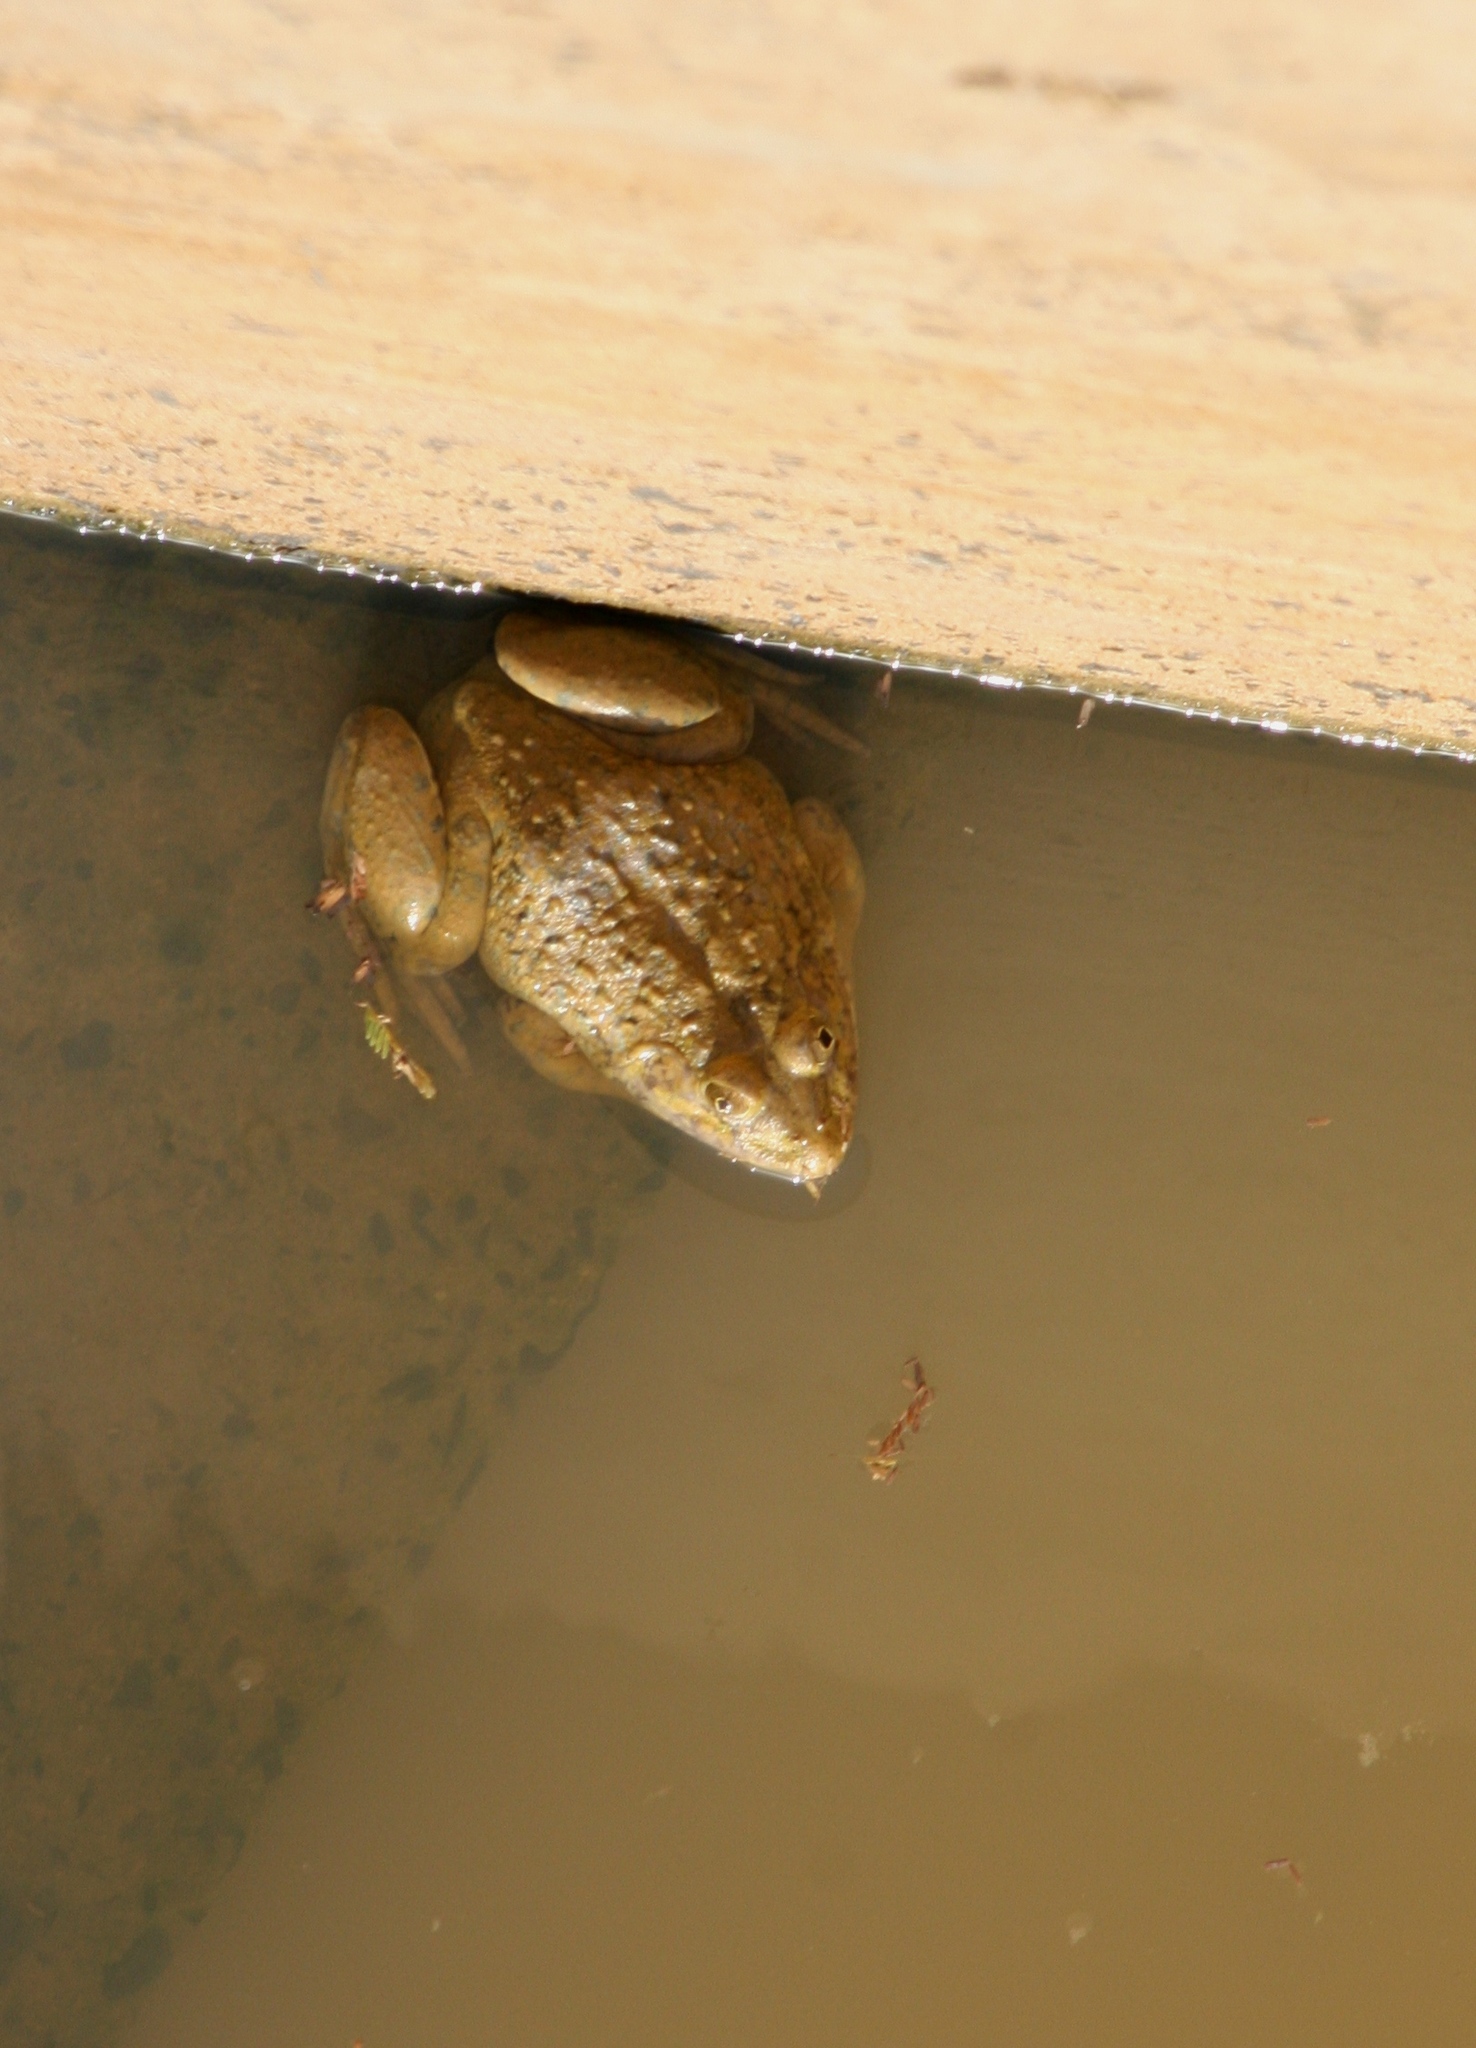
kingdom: Animalia
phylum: Chordata
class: Amphibia
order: Anura
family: Dicroglossidae
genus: Hoplobatrachus
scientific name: Hoplobatrachus occipitalis
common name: Eastern groove-crowned bullfrog
